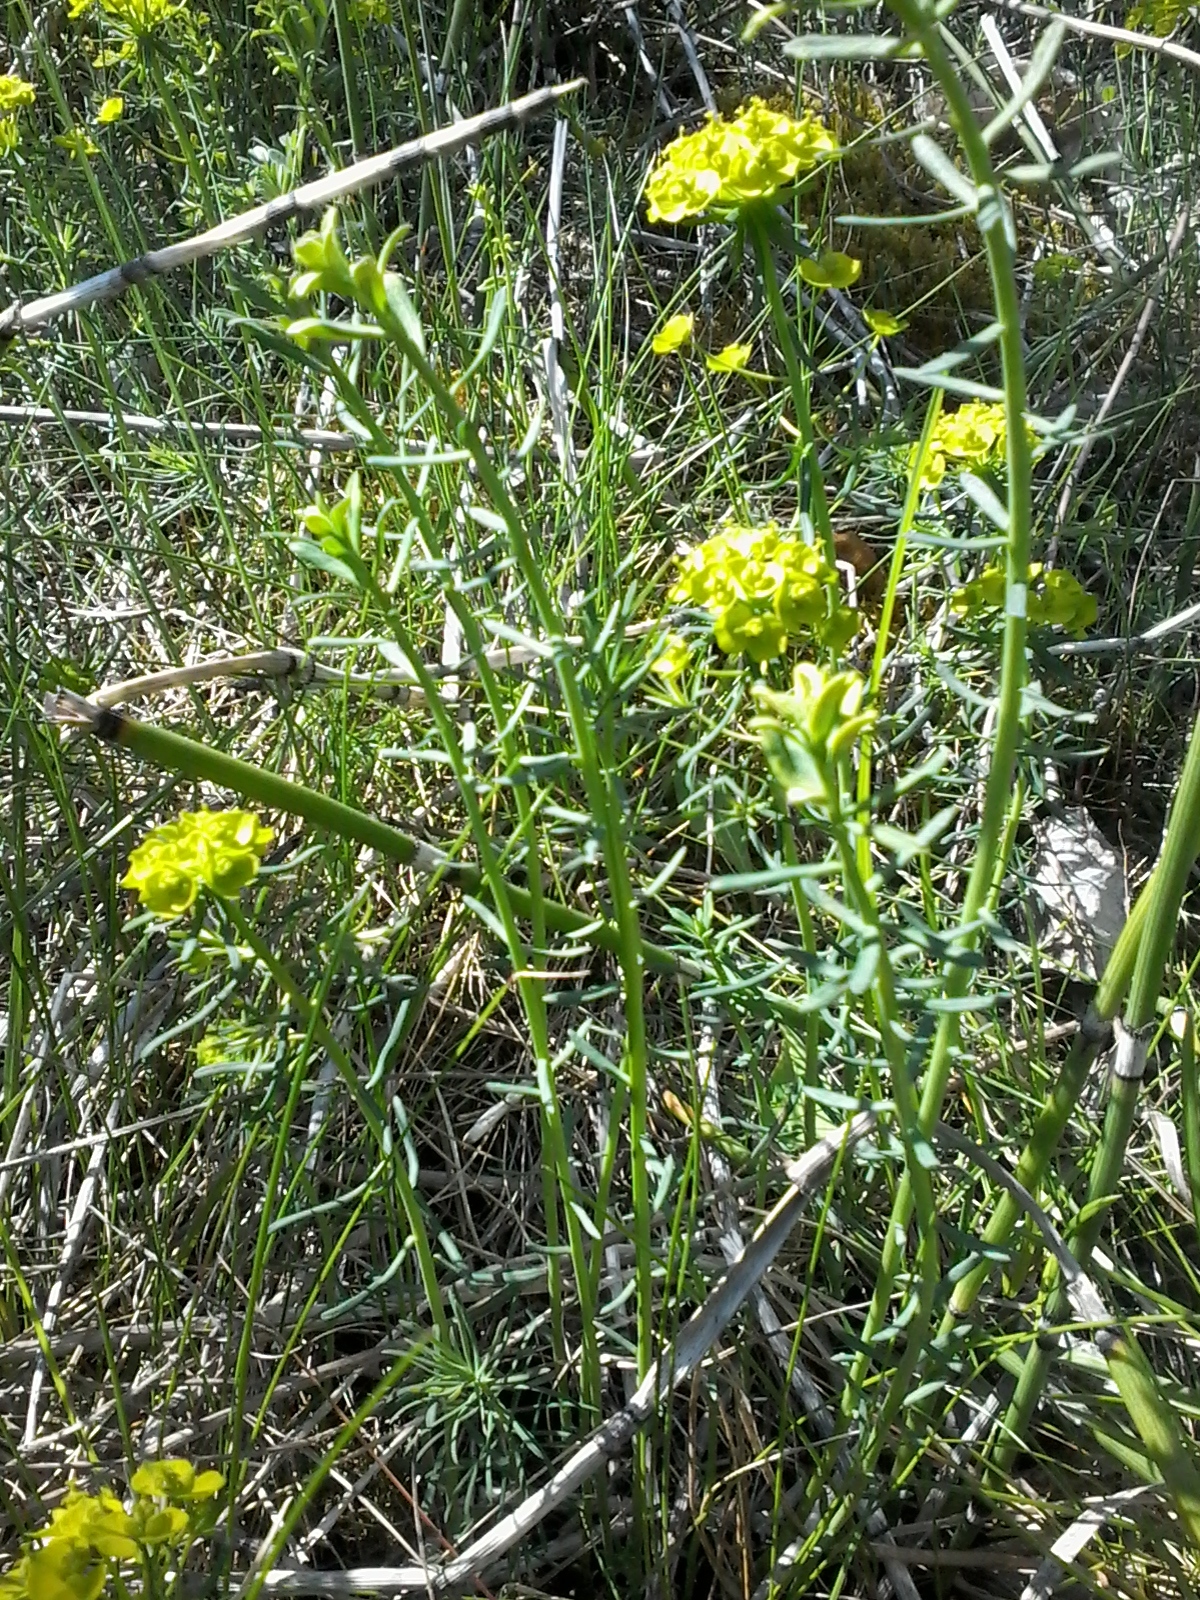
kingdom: Plantae
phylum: Tracheophyta
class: Magnoliopsida
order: Malpighiales
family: Euphorbiaceae
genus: Euphorbia
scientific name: Euphorbia cyparissias
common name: Cypress spurge
